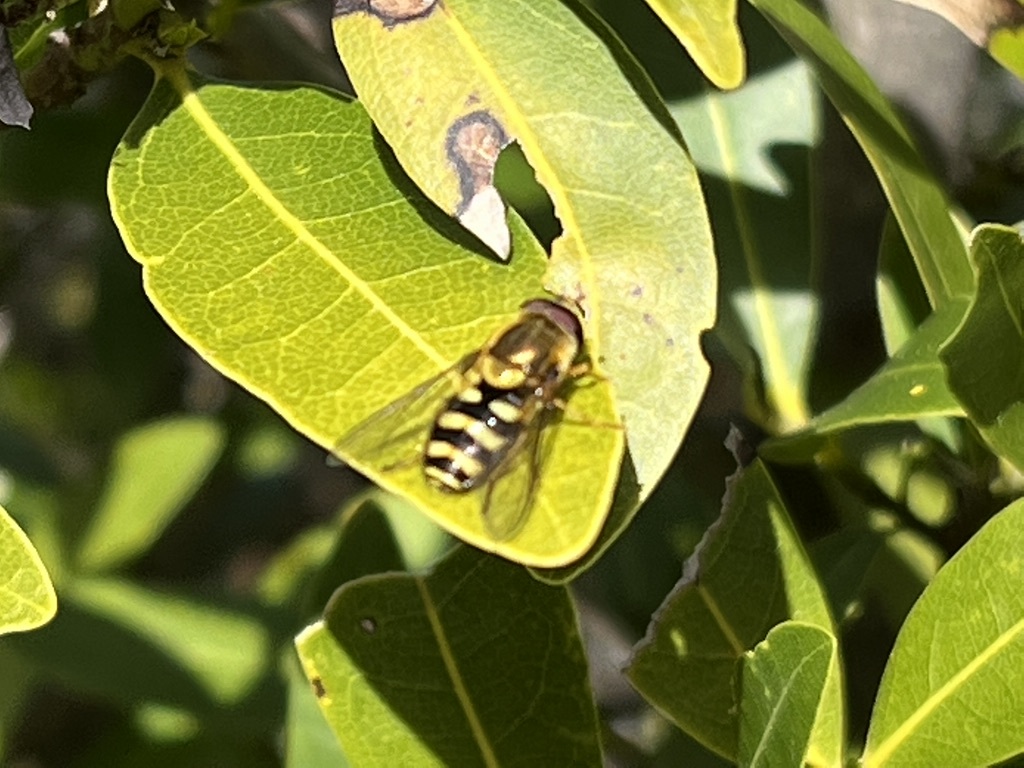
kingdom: Animalia
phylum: Arthropoda
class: Insecta
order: Diptera
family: Syrphidae
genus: Syrphus
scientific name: Syrphus opinator
